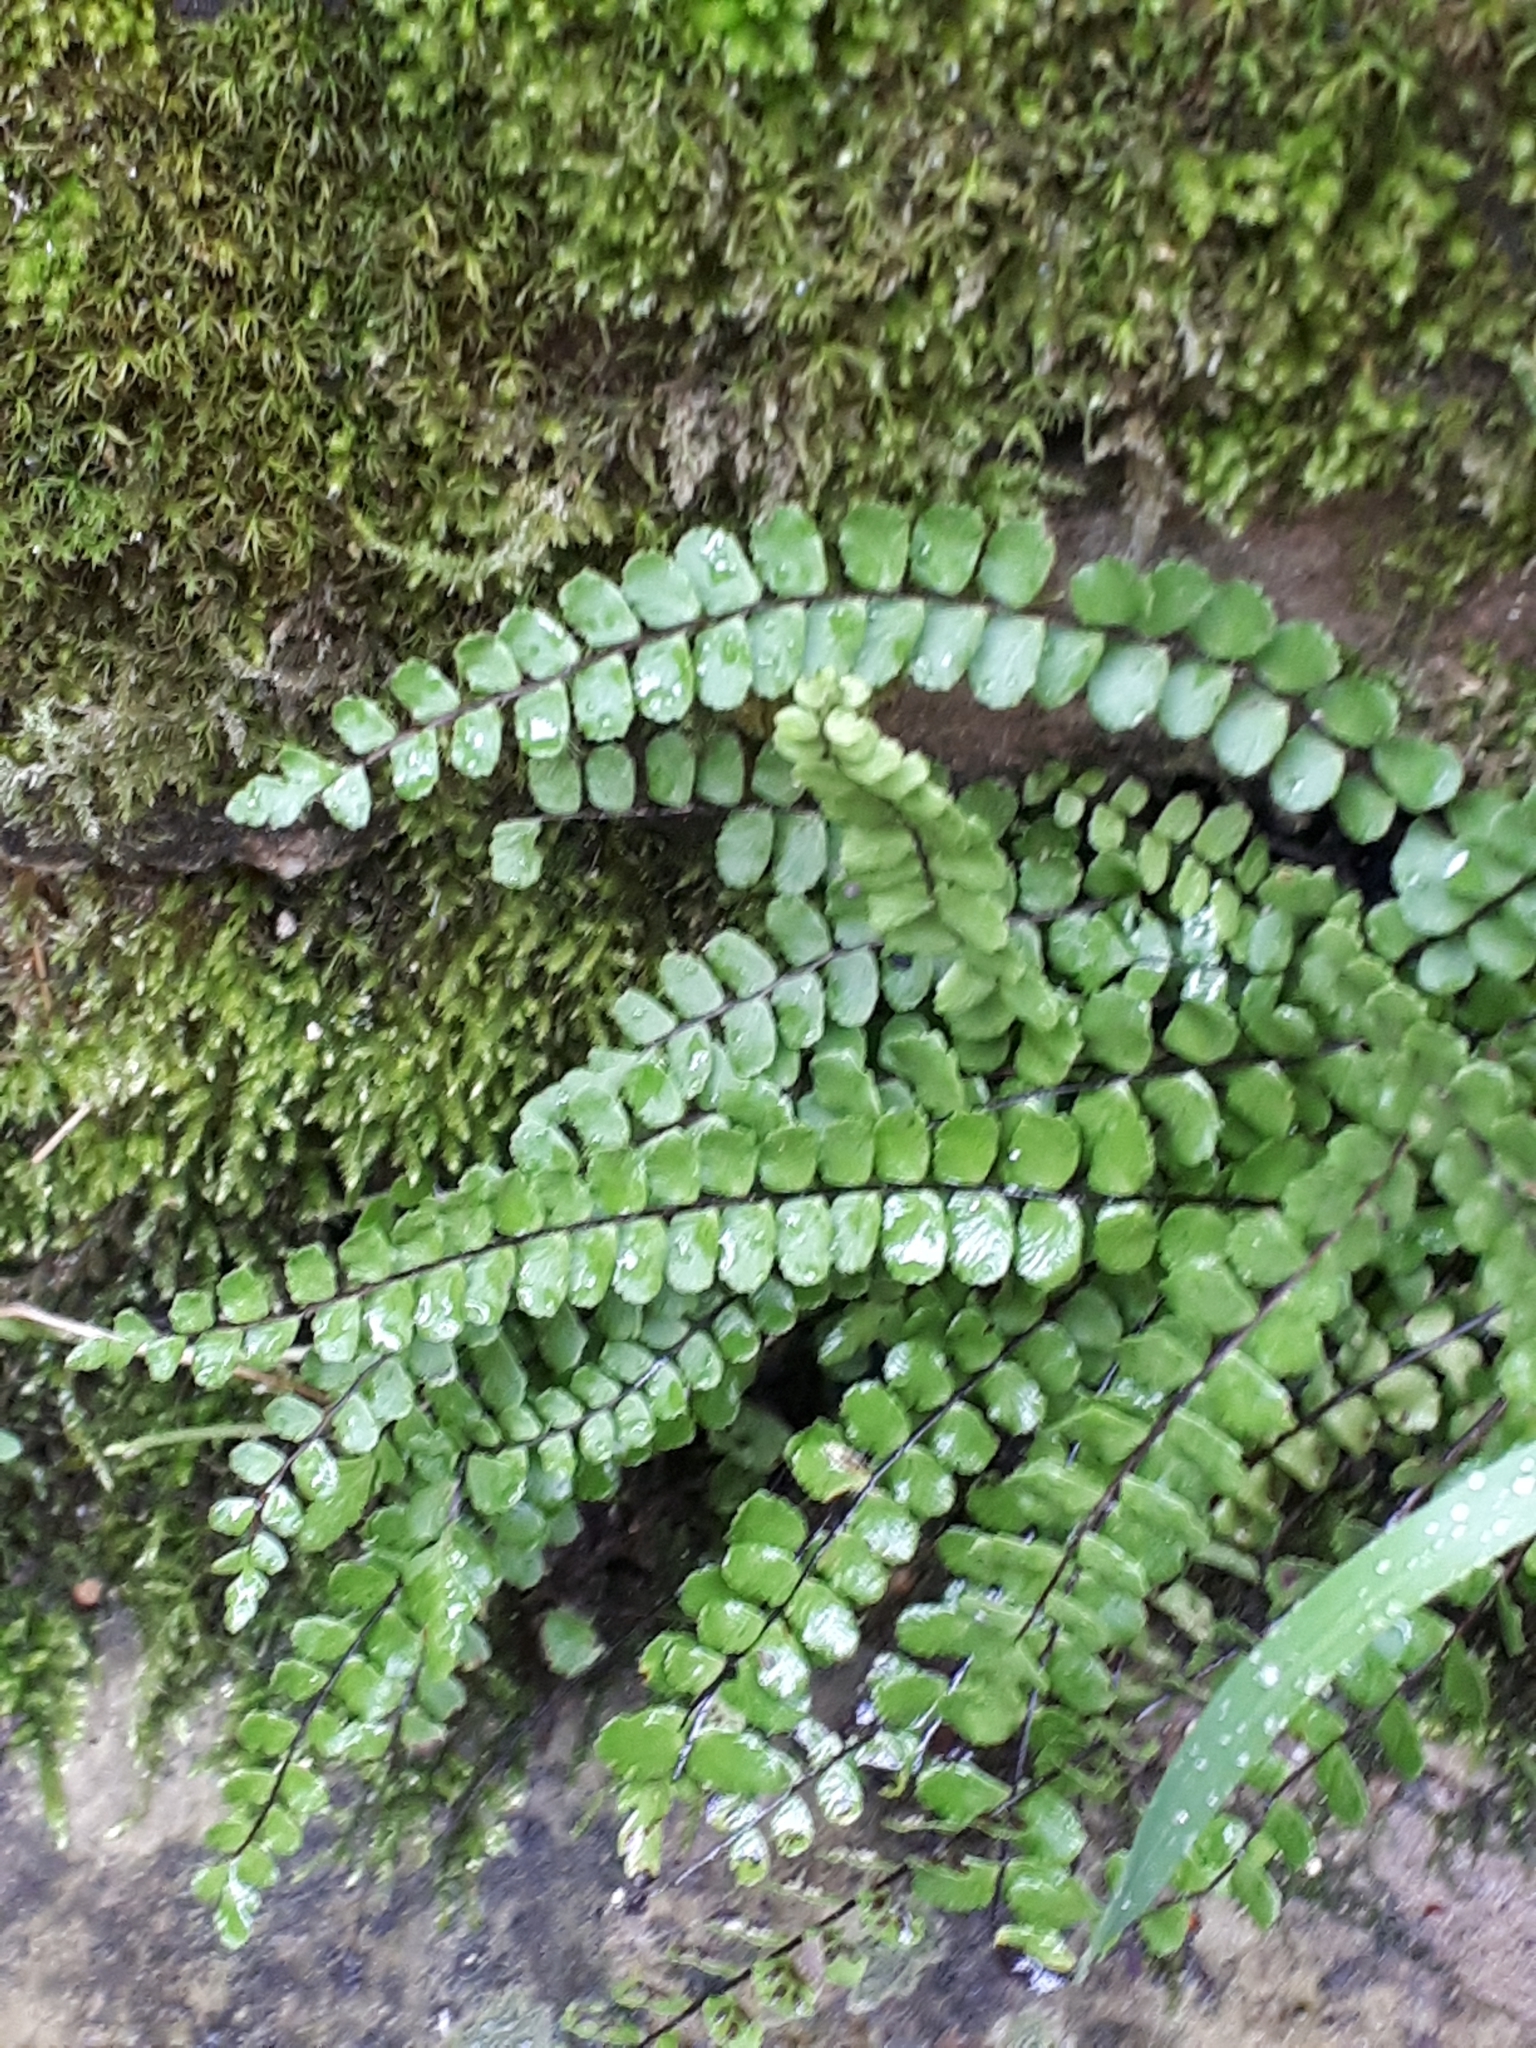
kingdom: Plantae
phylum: Tracheophyta
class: Polypodiopsida
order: Polypodiales
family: Aspleniaceae
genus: Asplenium
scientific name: Asplenium trichomanes
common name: Maidenhair spleenwort
